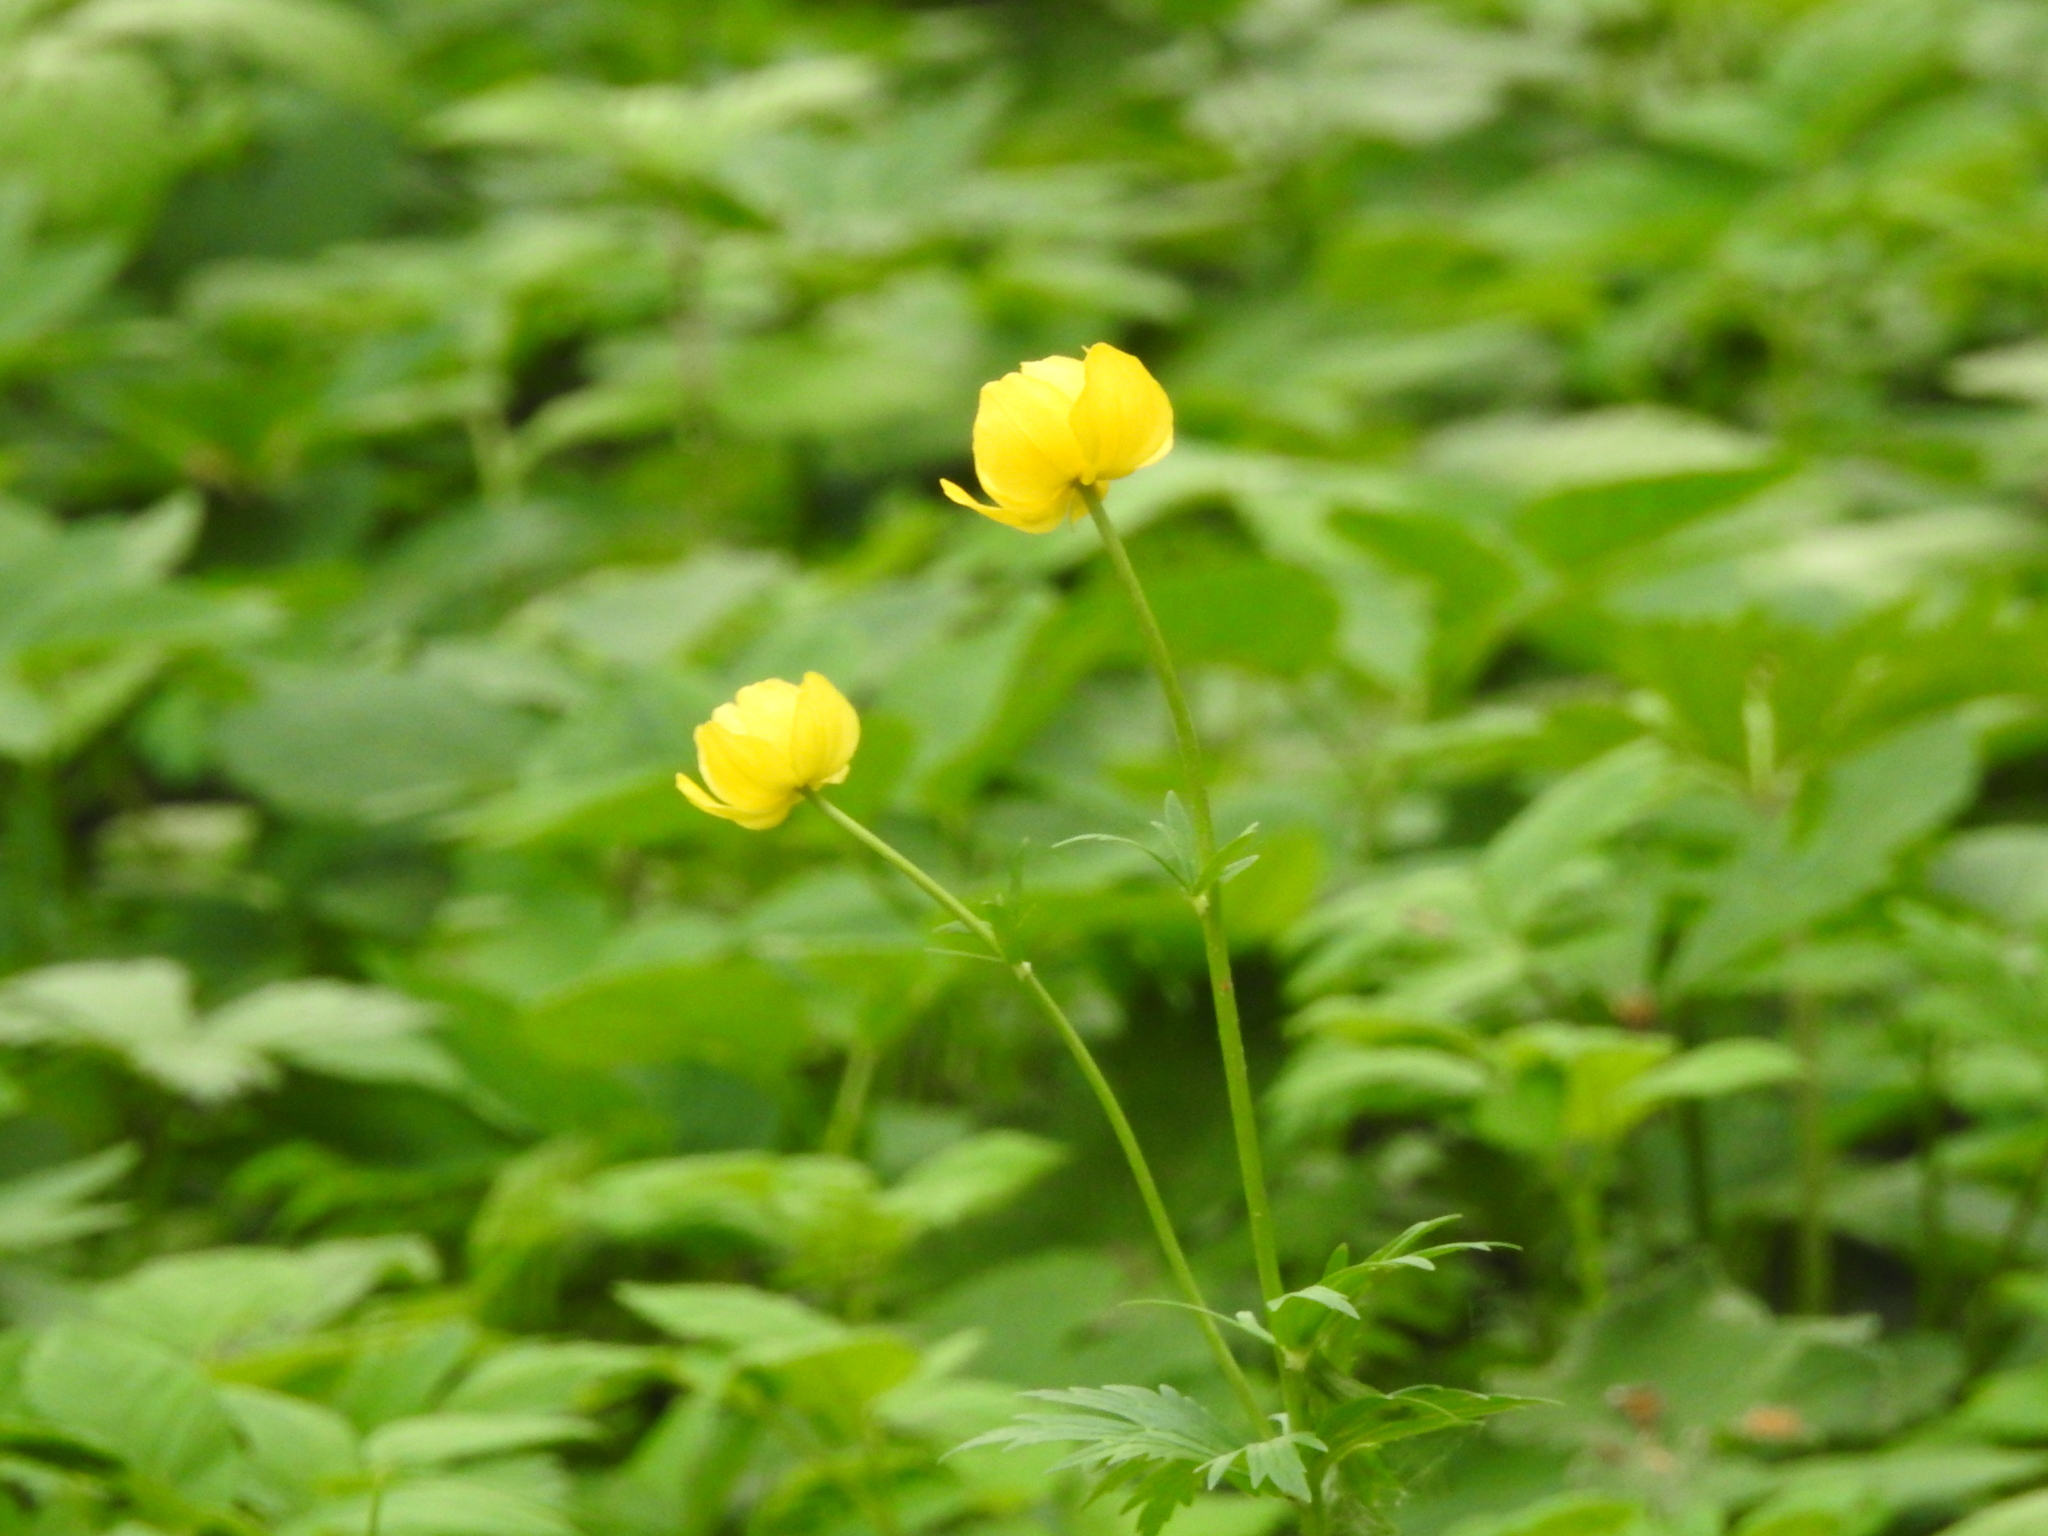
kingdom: Plantae
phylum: Tracheophyta
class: Magnoliopsida
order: Ranunculales
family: Ranunculaceae
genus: Trollius
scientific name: Trollius europaeus
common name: European globeflower
